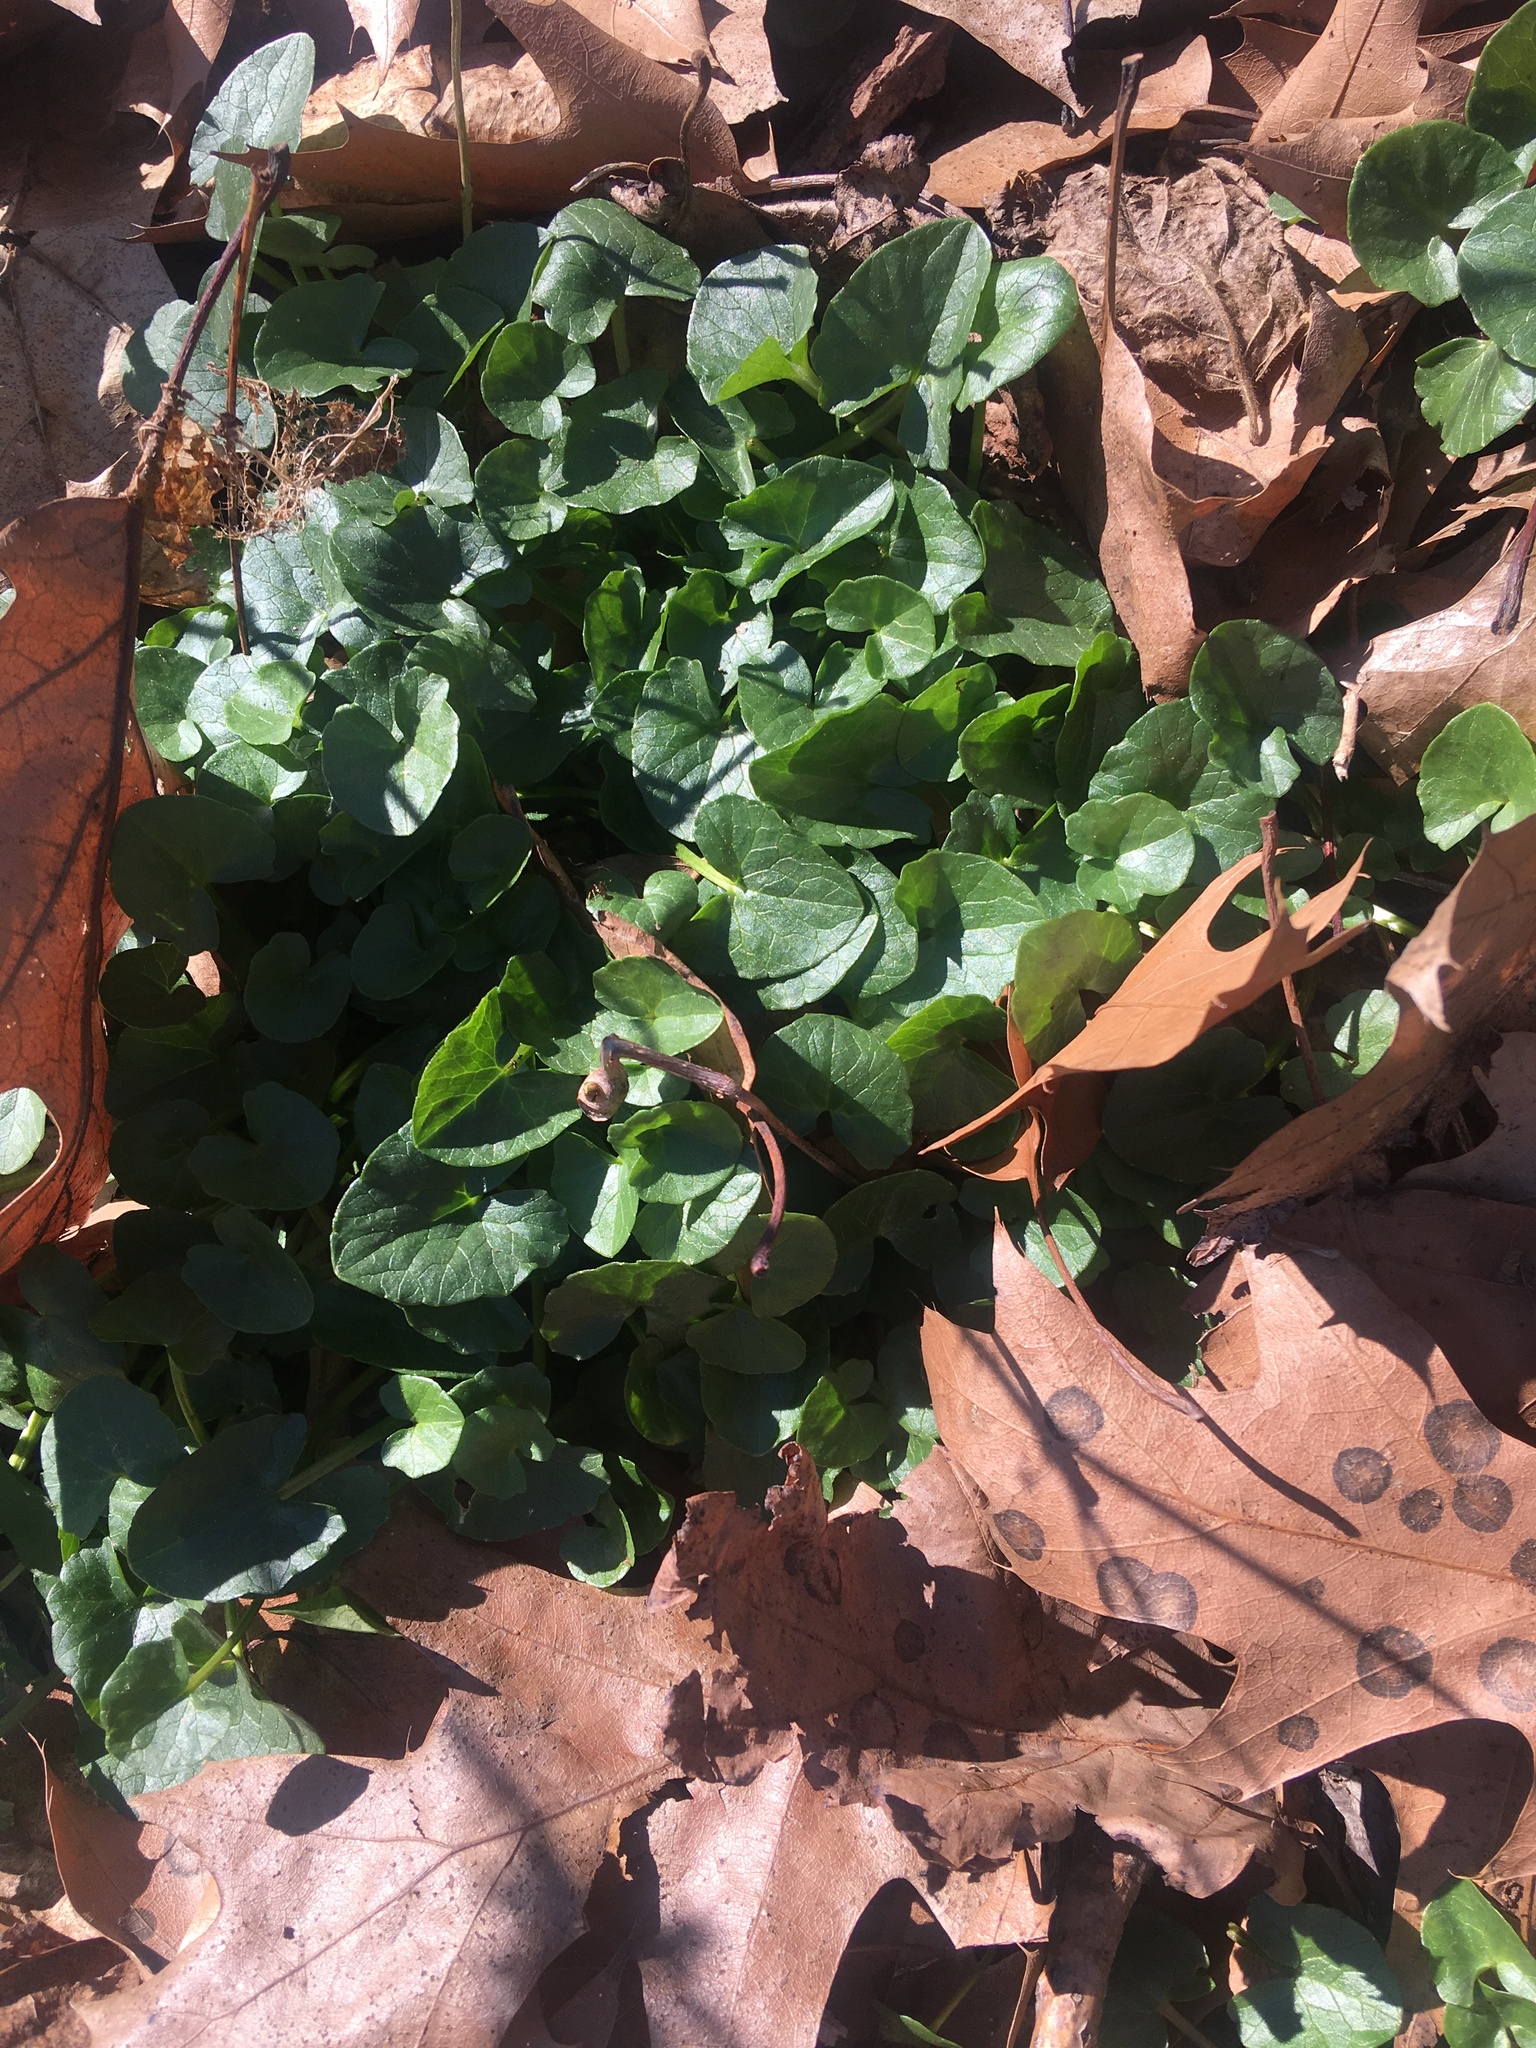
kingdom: Plantae
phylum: Tracheophyta
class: Magnoliopsida
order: Ranunculales
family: Ranunculaceae
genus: Ficaria
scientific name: Ficaria verna
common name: Lesser celandine
